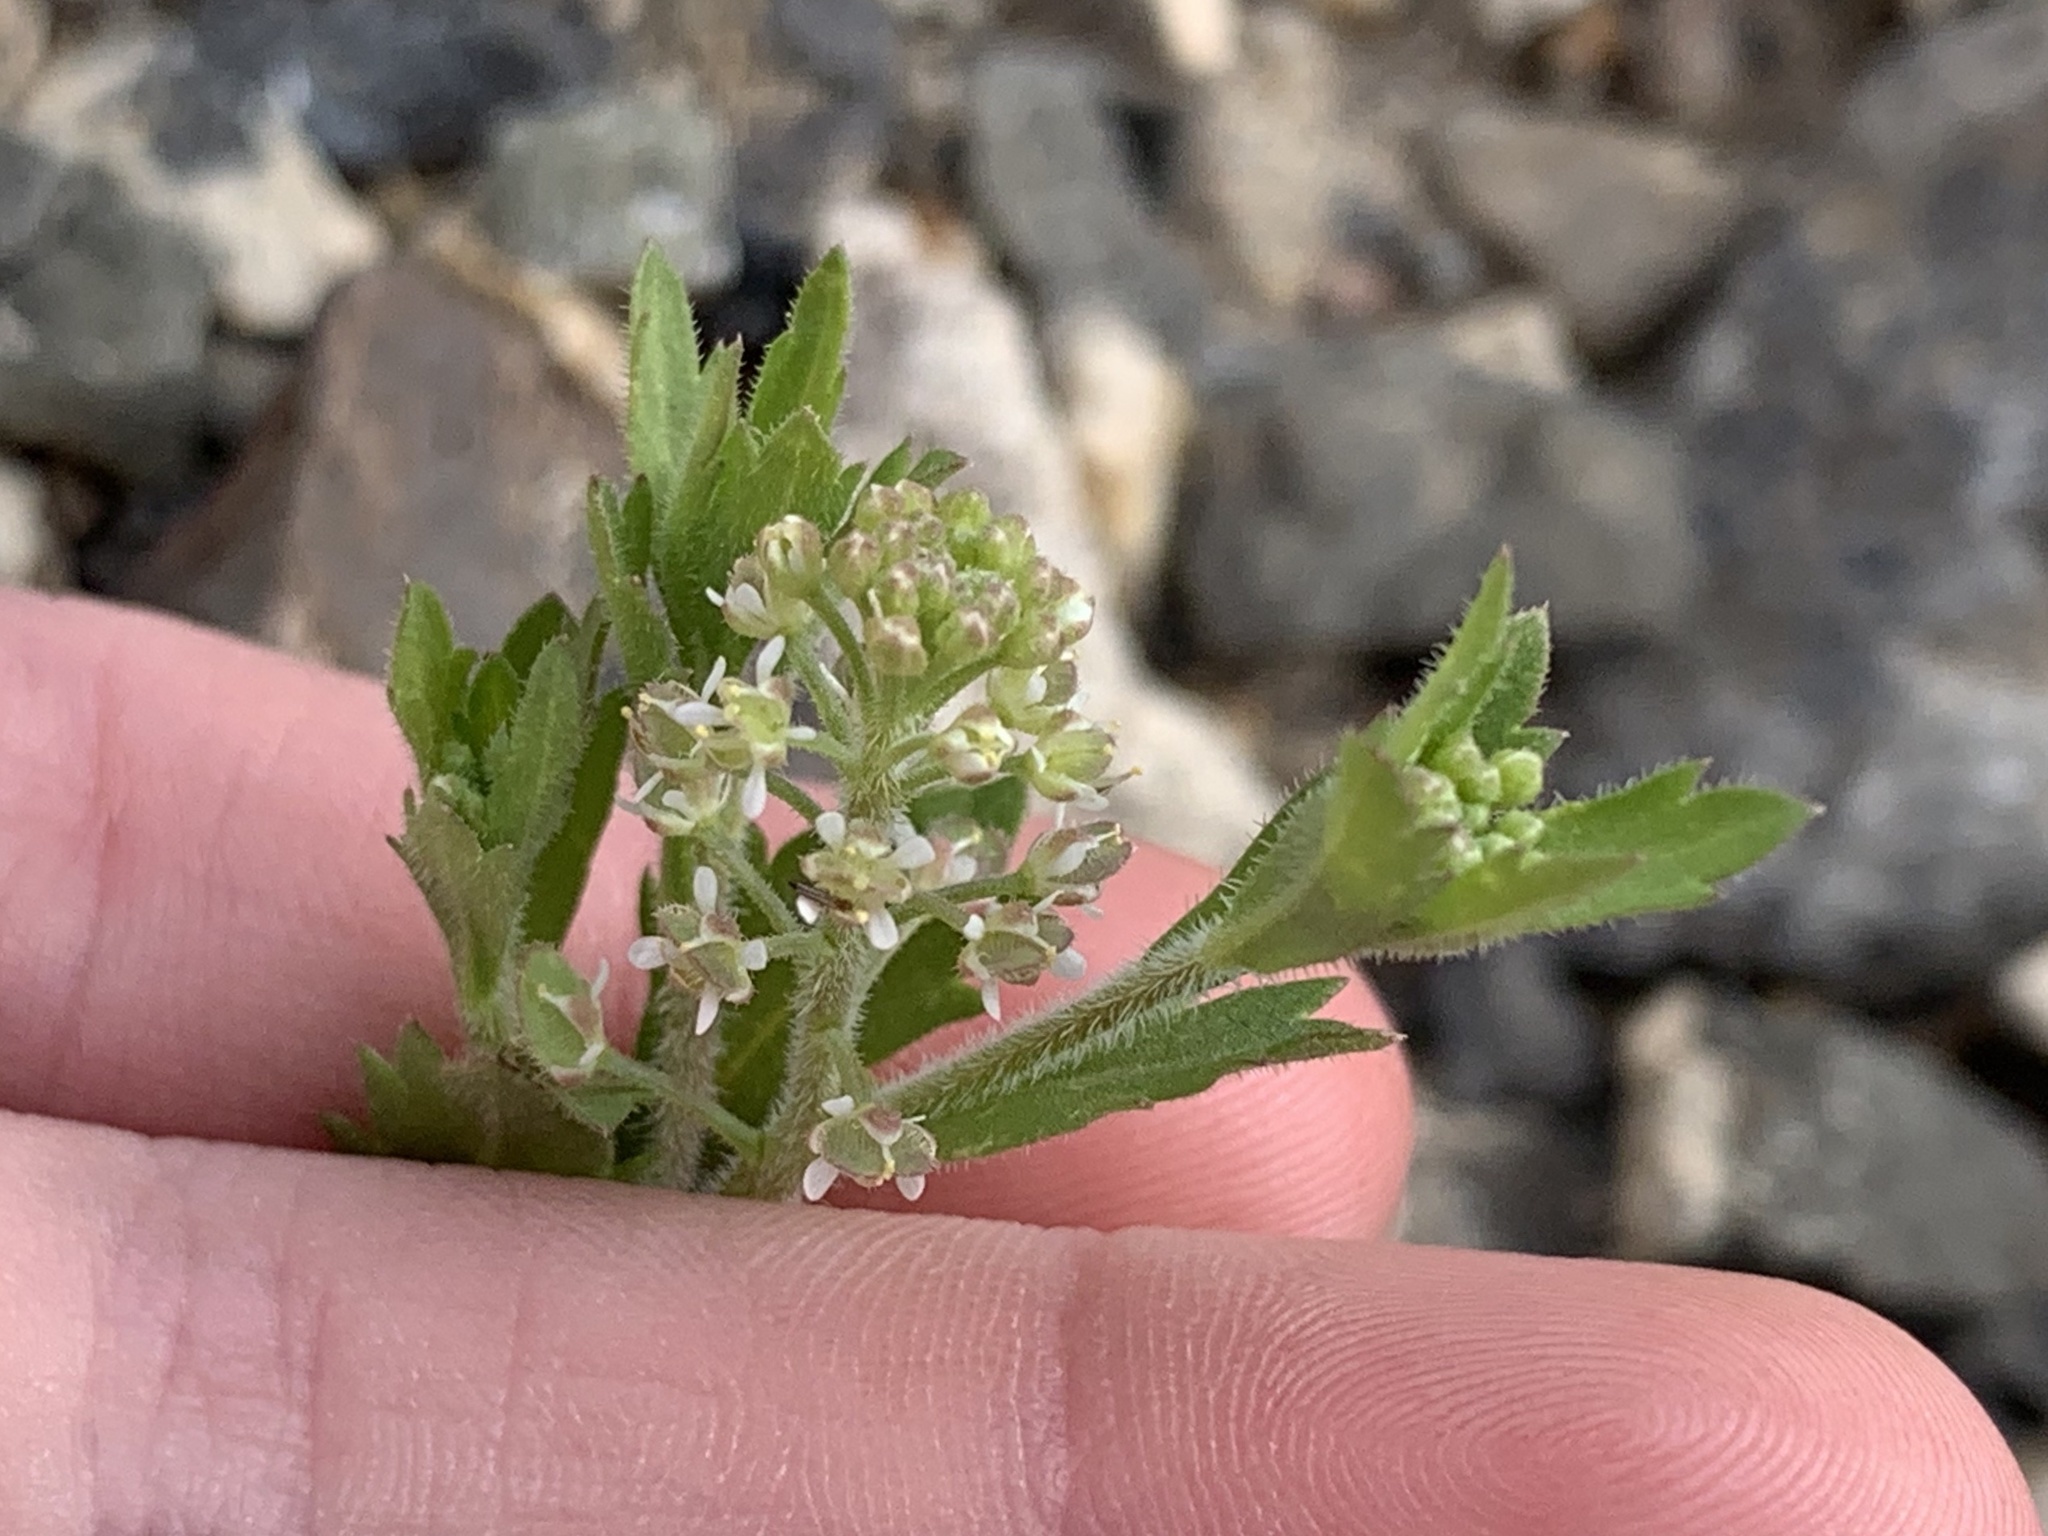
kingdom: Plantae
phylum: Tracheophyta
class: Magnoliopsida
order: Brassicales
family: Brassicaceae
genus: Lepidium
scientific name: Lepidium lasiocarpum
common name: Hairy-pod pepperwort
